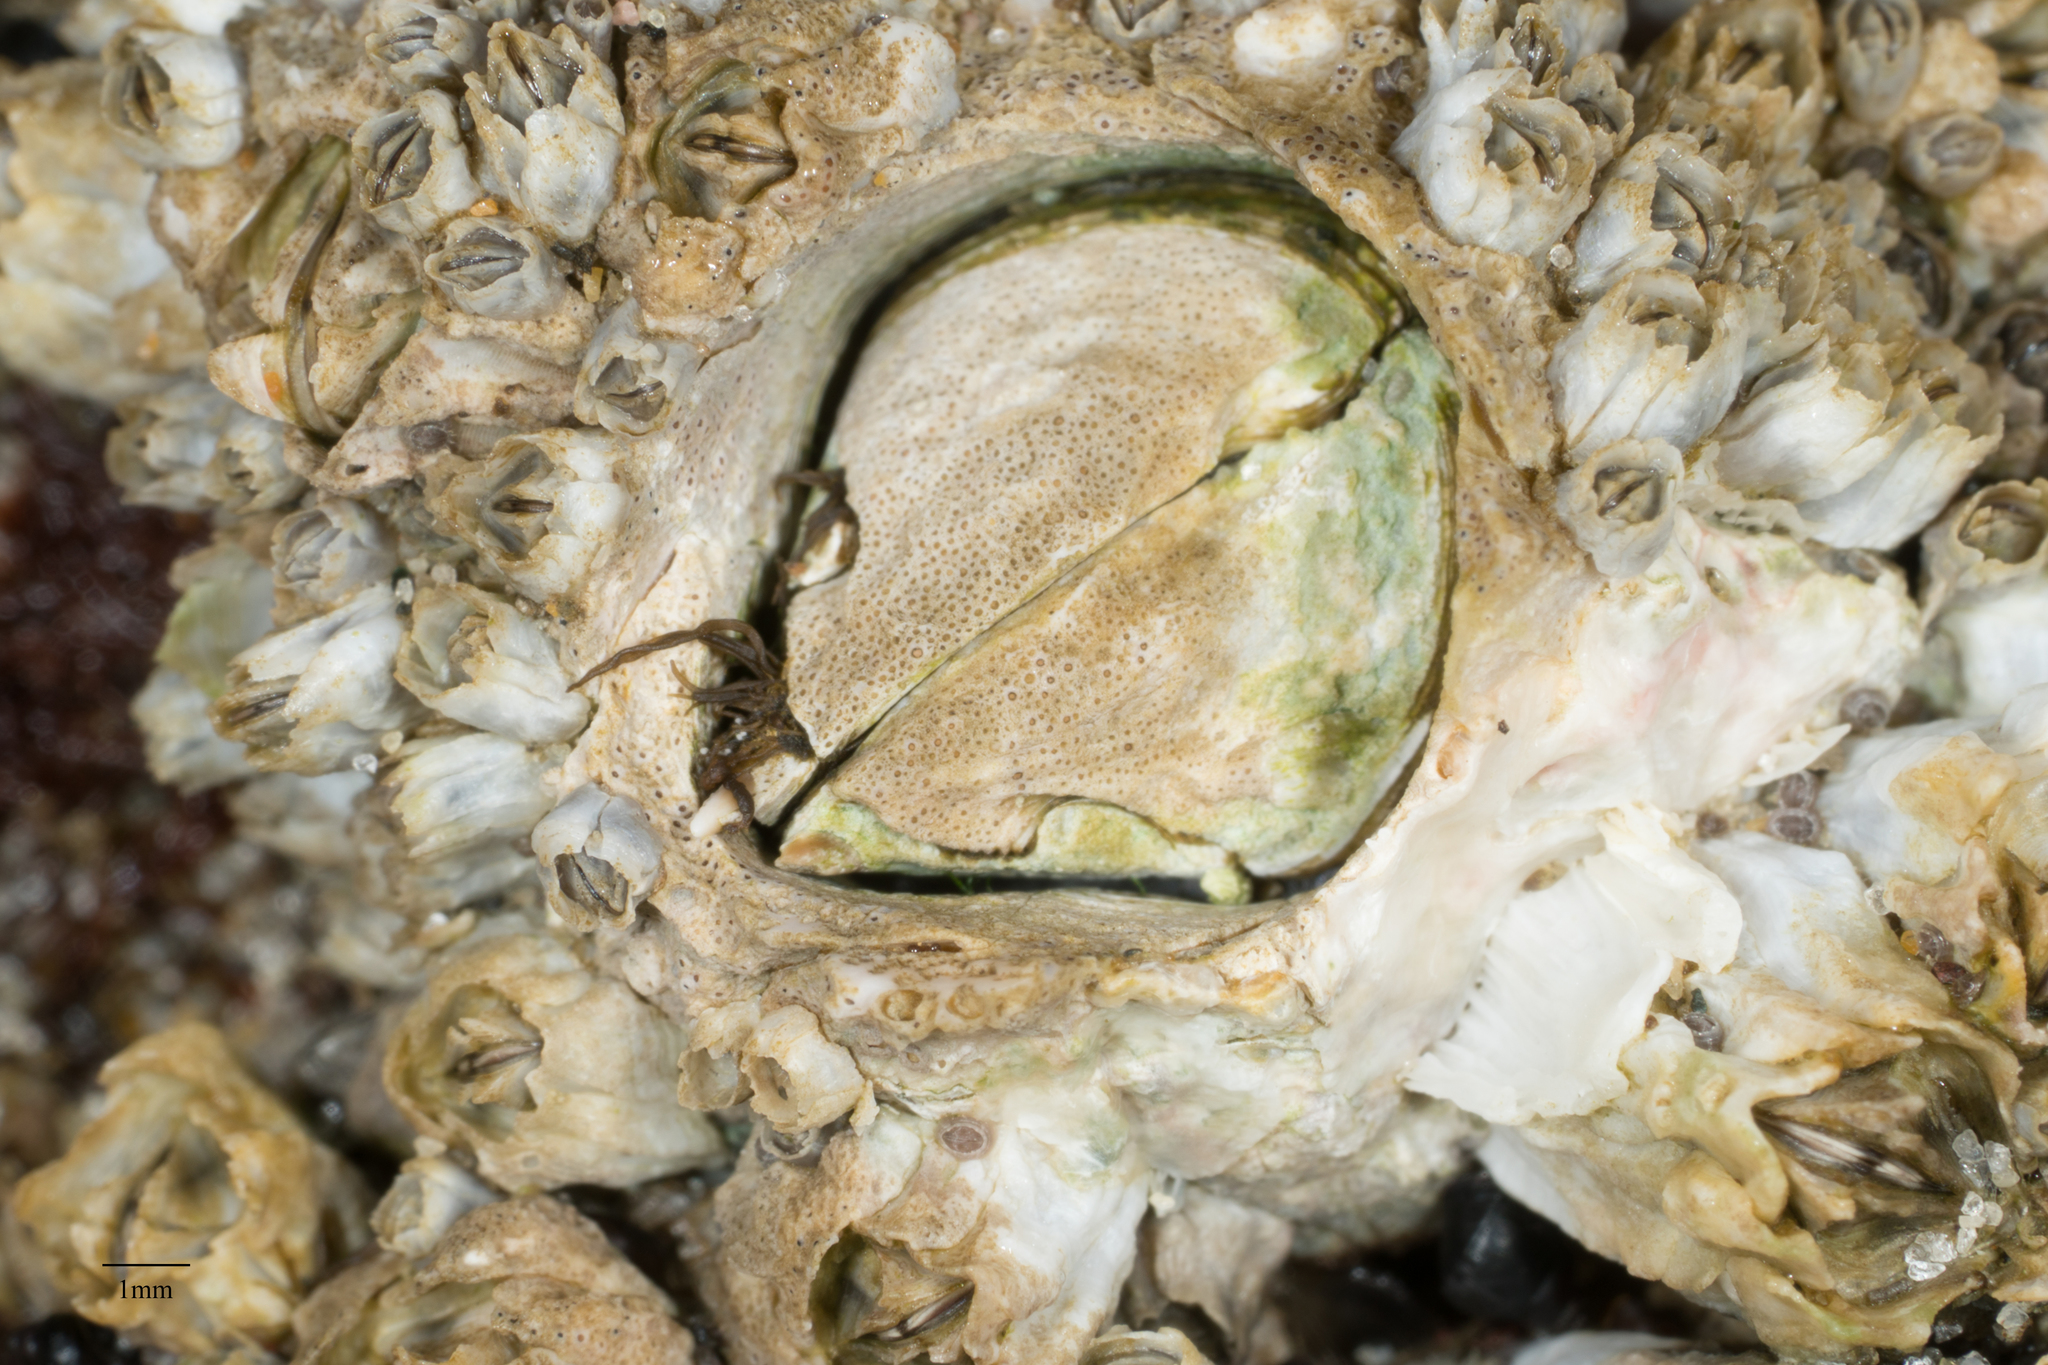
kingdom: Animalia
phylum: Arthropoda
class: Maxillopoda
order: Sessilia
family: Archaeobalanidae
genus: Semibalanus
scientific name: Semibalanus cariosus
